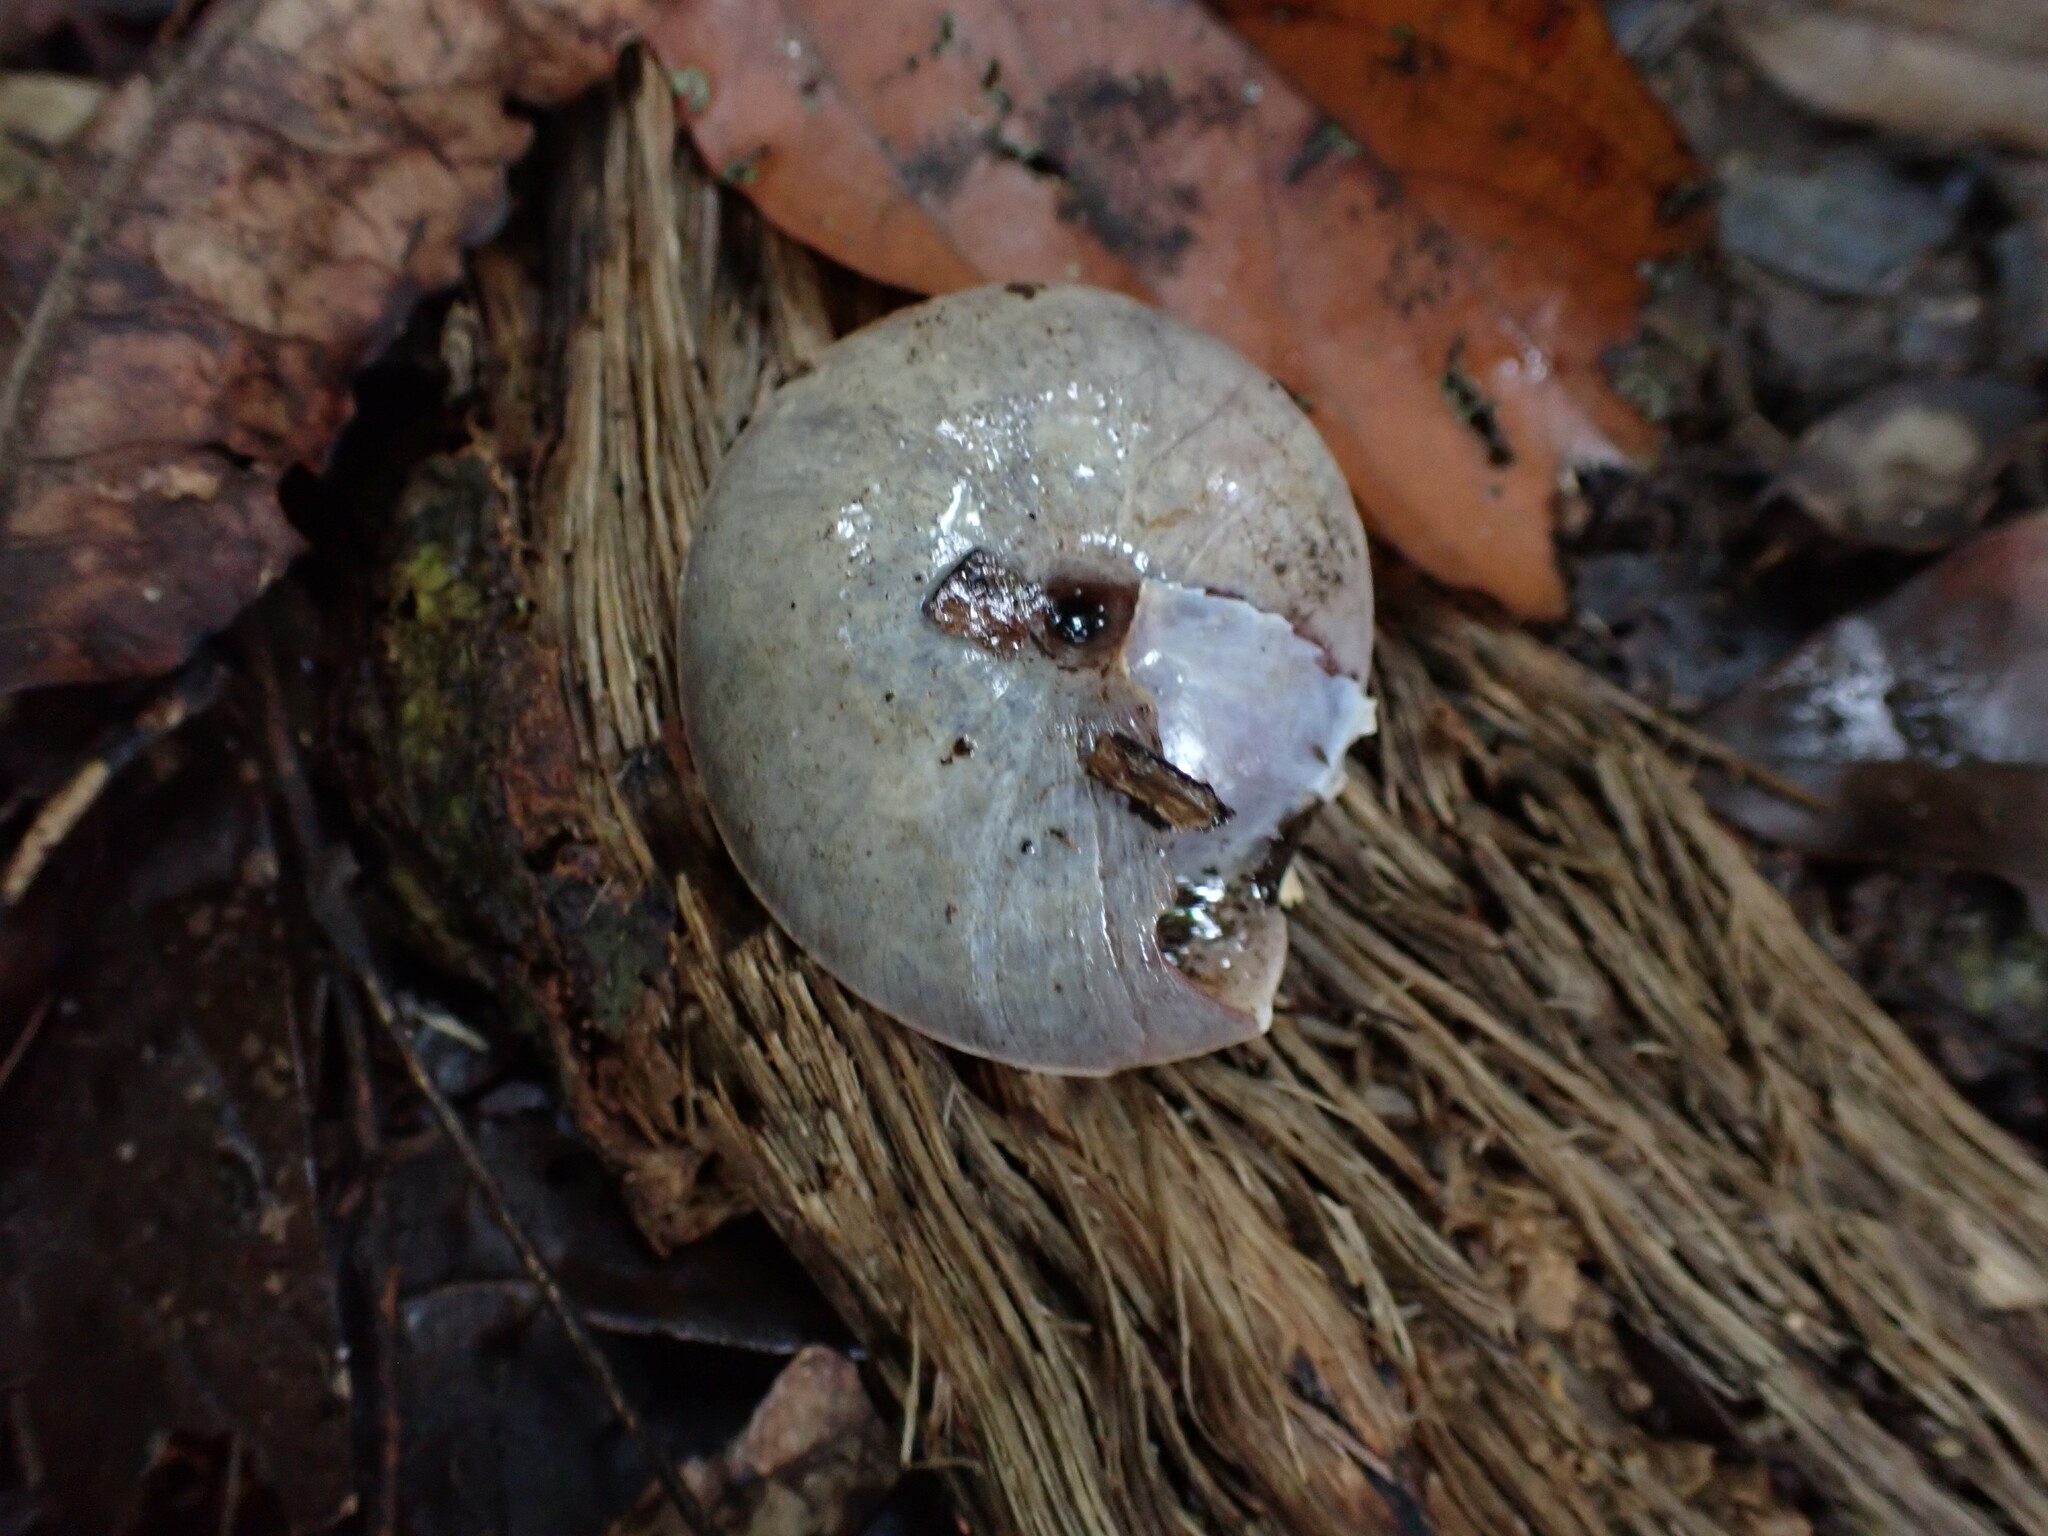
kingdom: Animalia
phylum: Mollusca
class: Gastropoda
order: Stylommatophora
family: Camaenidae
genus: Hadra
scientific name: Hadra webbi
